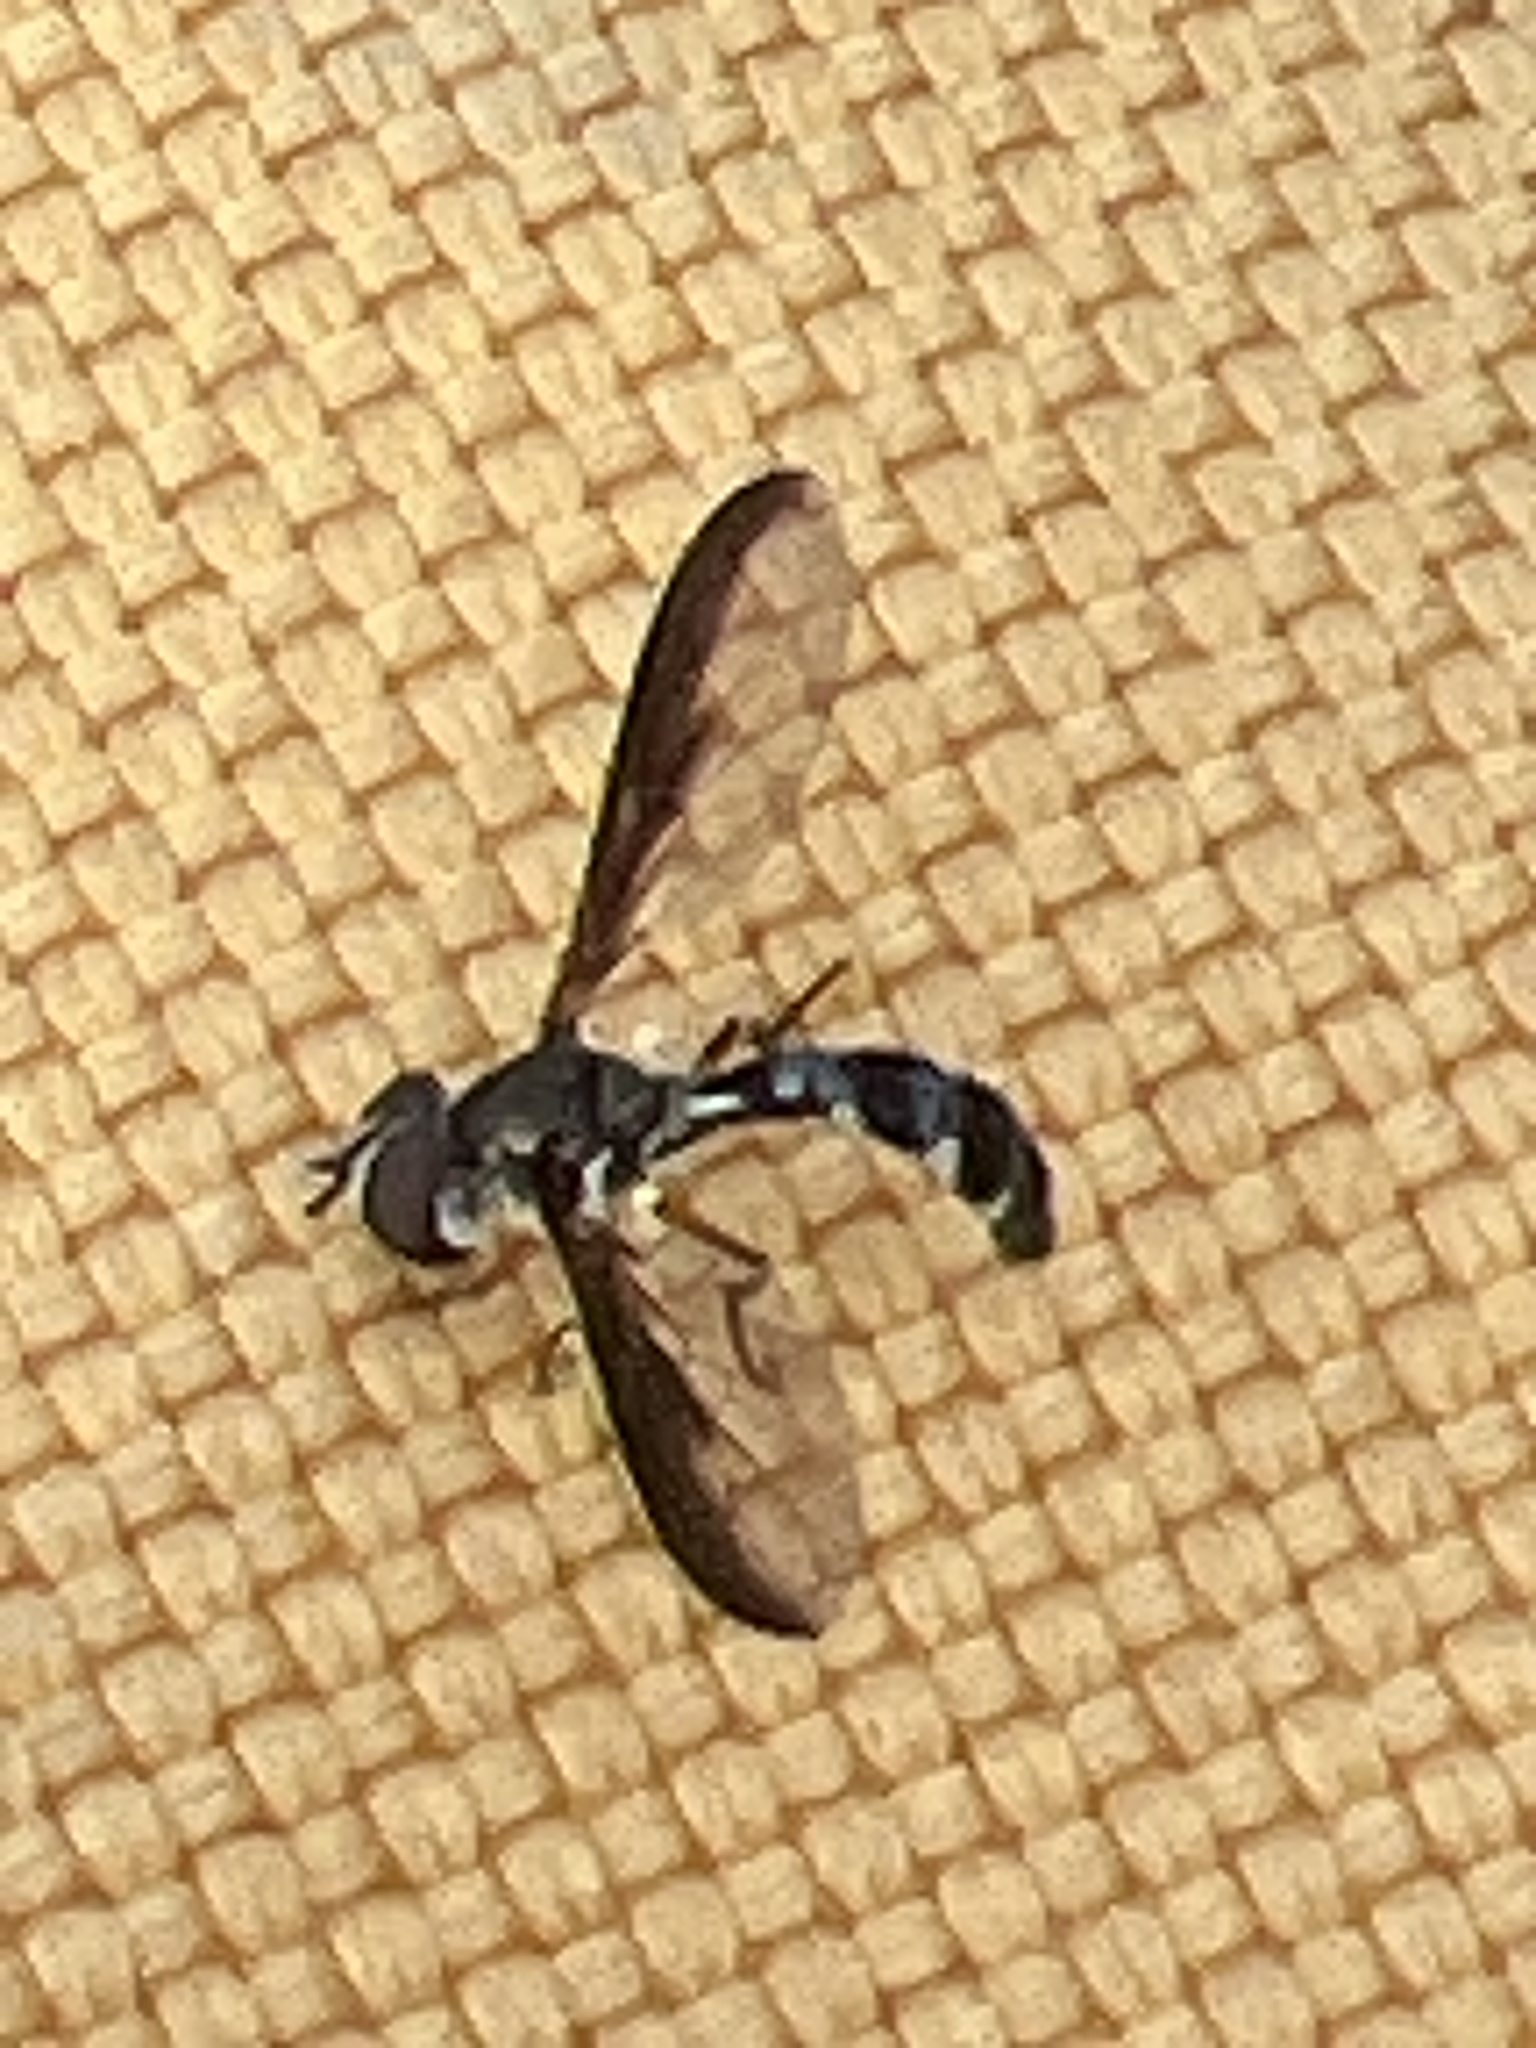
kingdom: Animalia
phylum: Arthropoda
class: Insecta
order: Diptera
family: Syrphidae
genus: Ocyptamus
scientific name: Ocyptamus costatus
